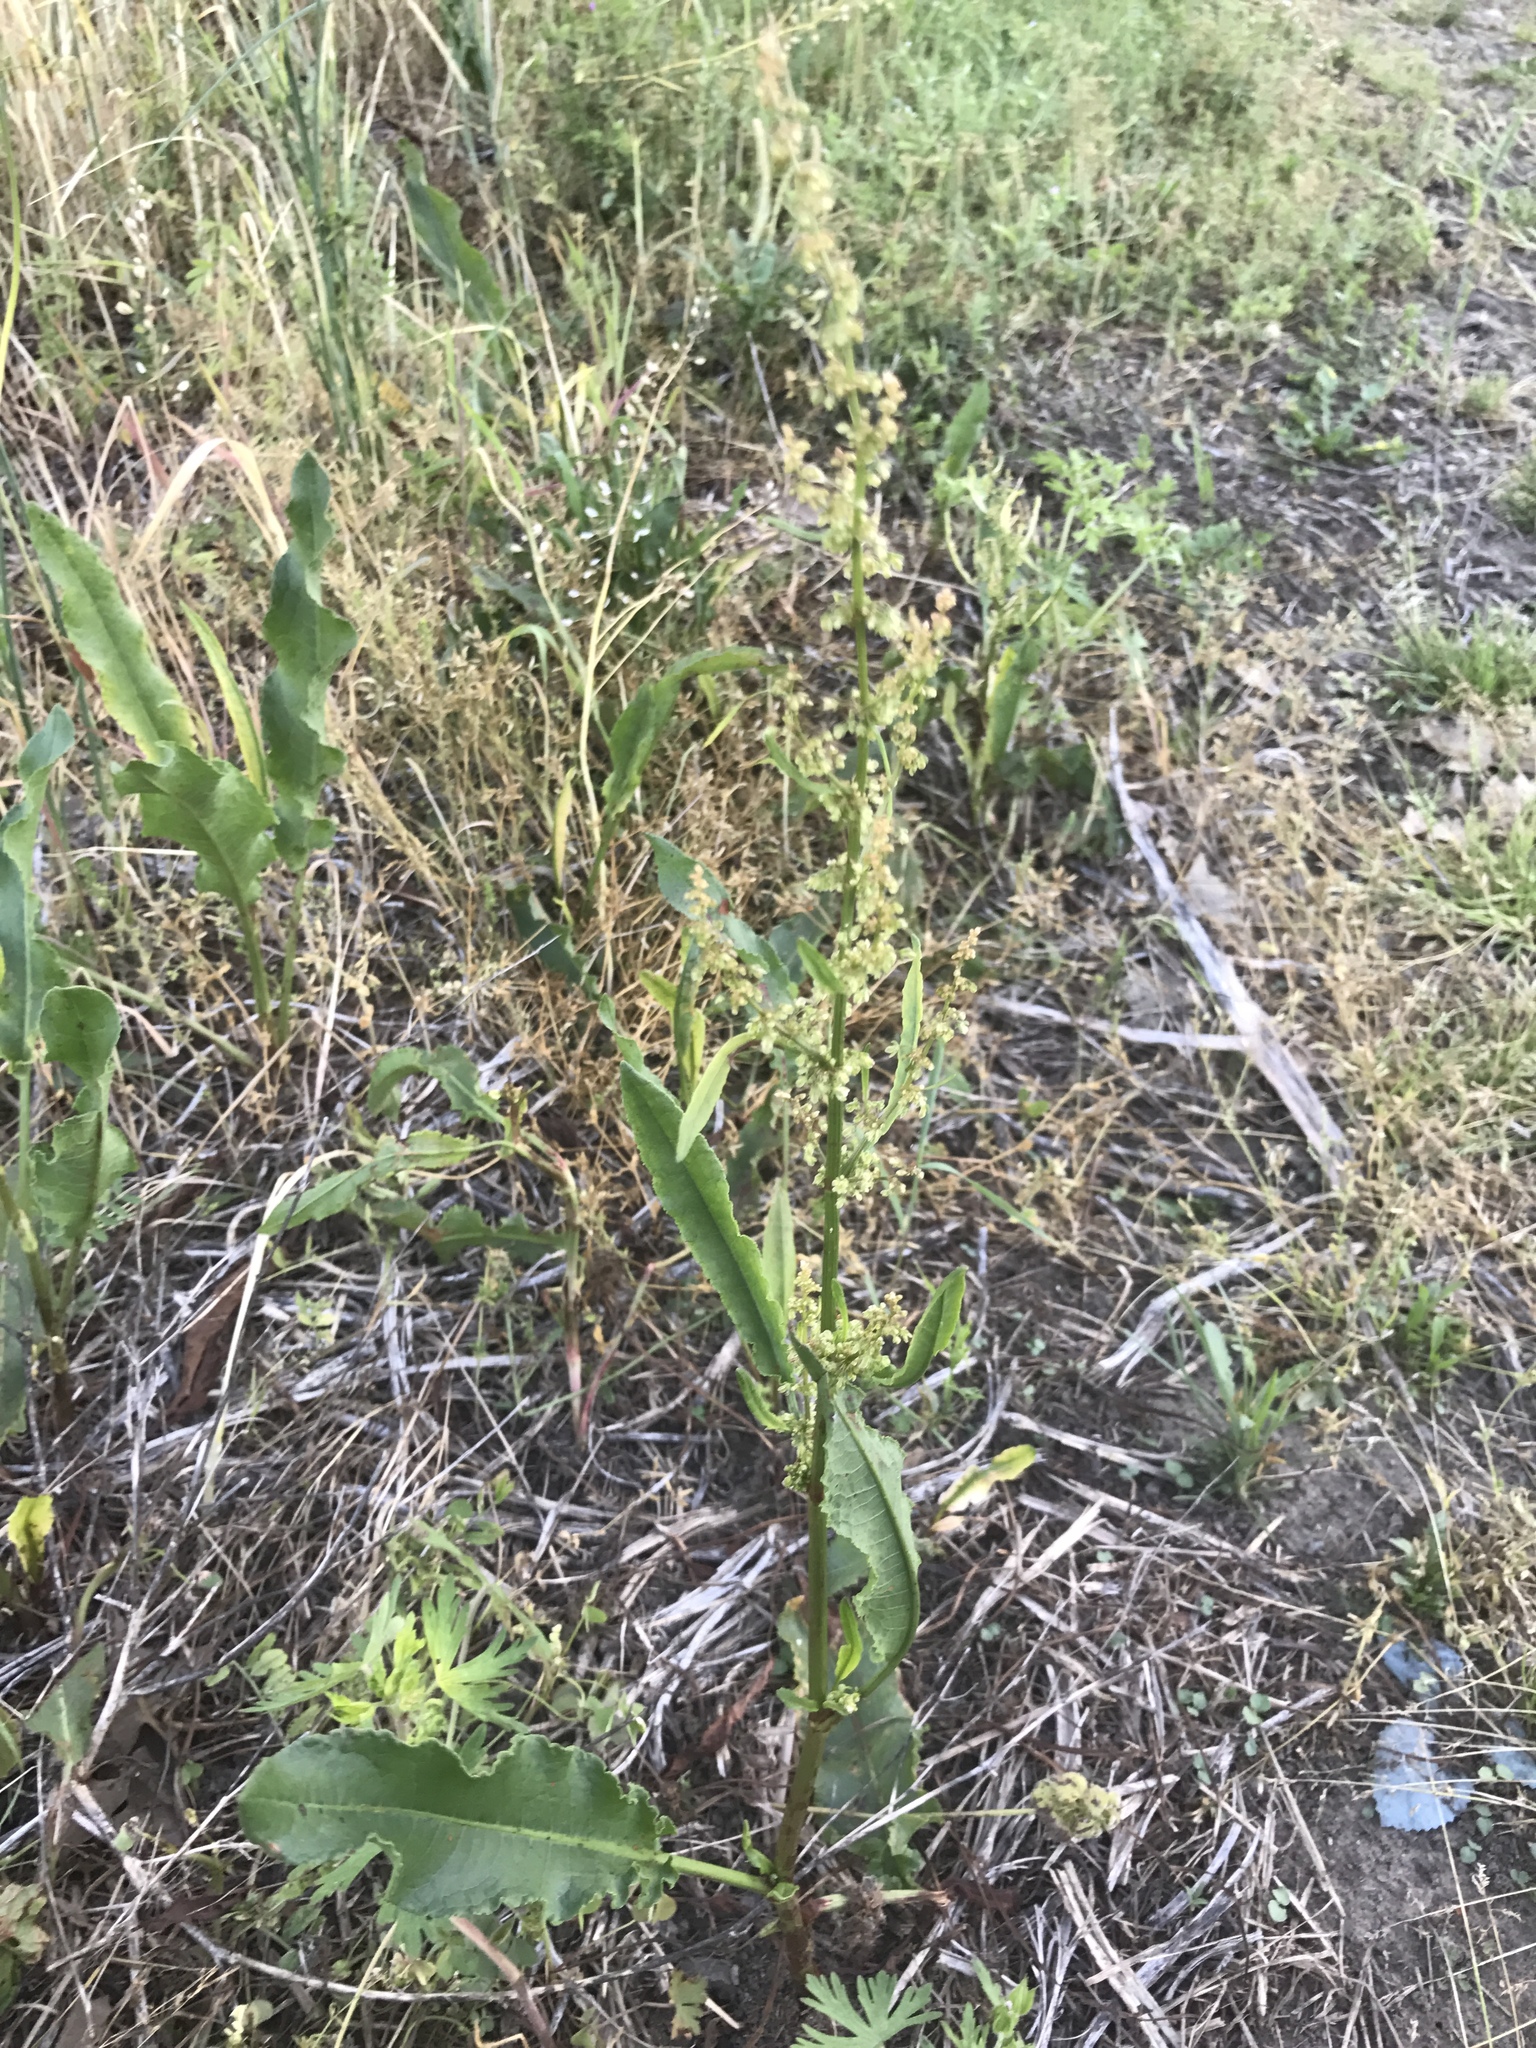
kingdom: Plantae
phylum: Tracheophyta
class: Magnoliopsida
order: Caryophyllales
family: Polygonaceae
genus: Rumex
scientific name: Rumex crispus
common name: Curled dock
